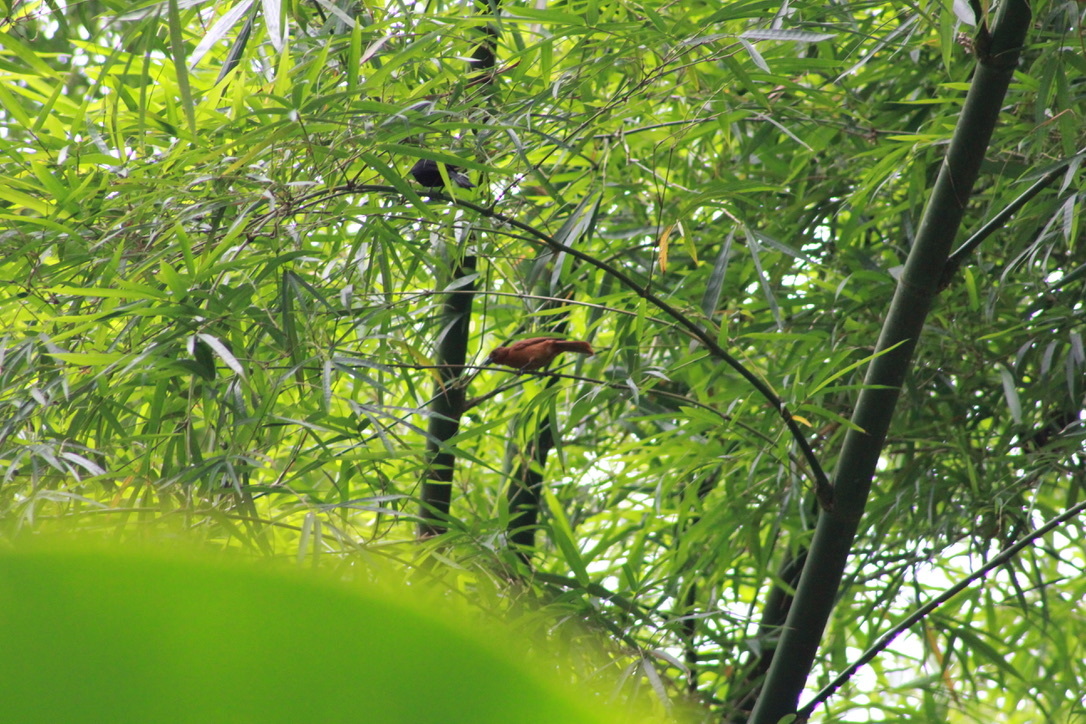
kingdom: Animalia
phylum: Chordata
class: Aves
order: Passeriformes
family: Thraupidae
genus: Tachyphonus
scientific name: Tachyphonus rufus
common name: White-lined tanager
